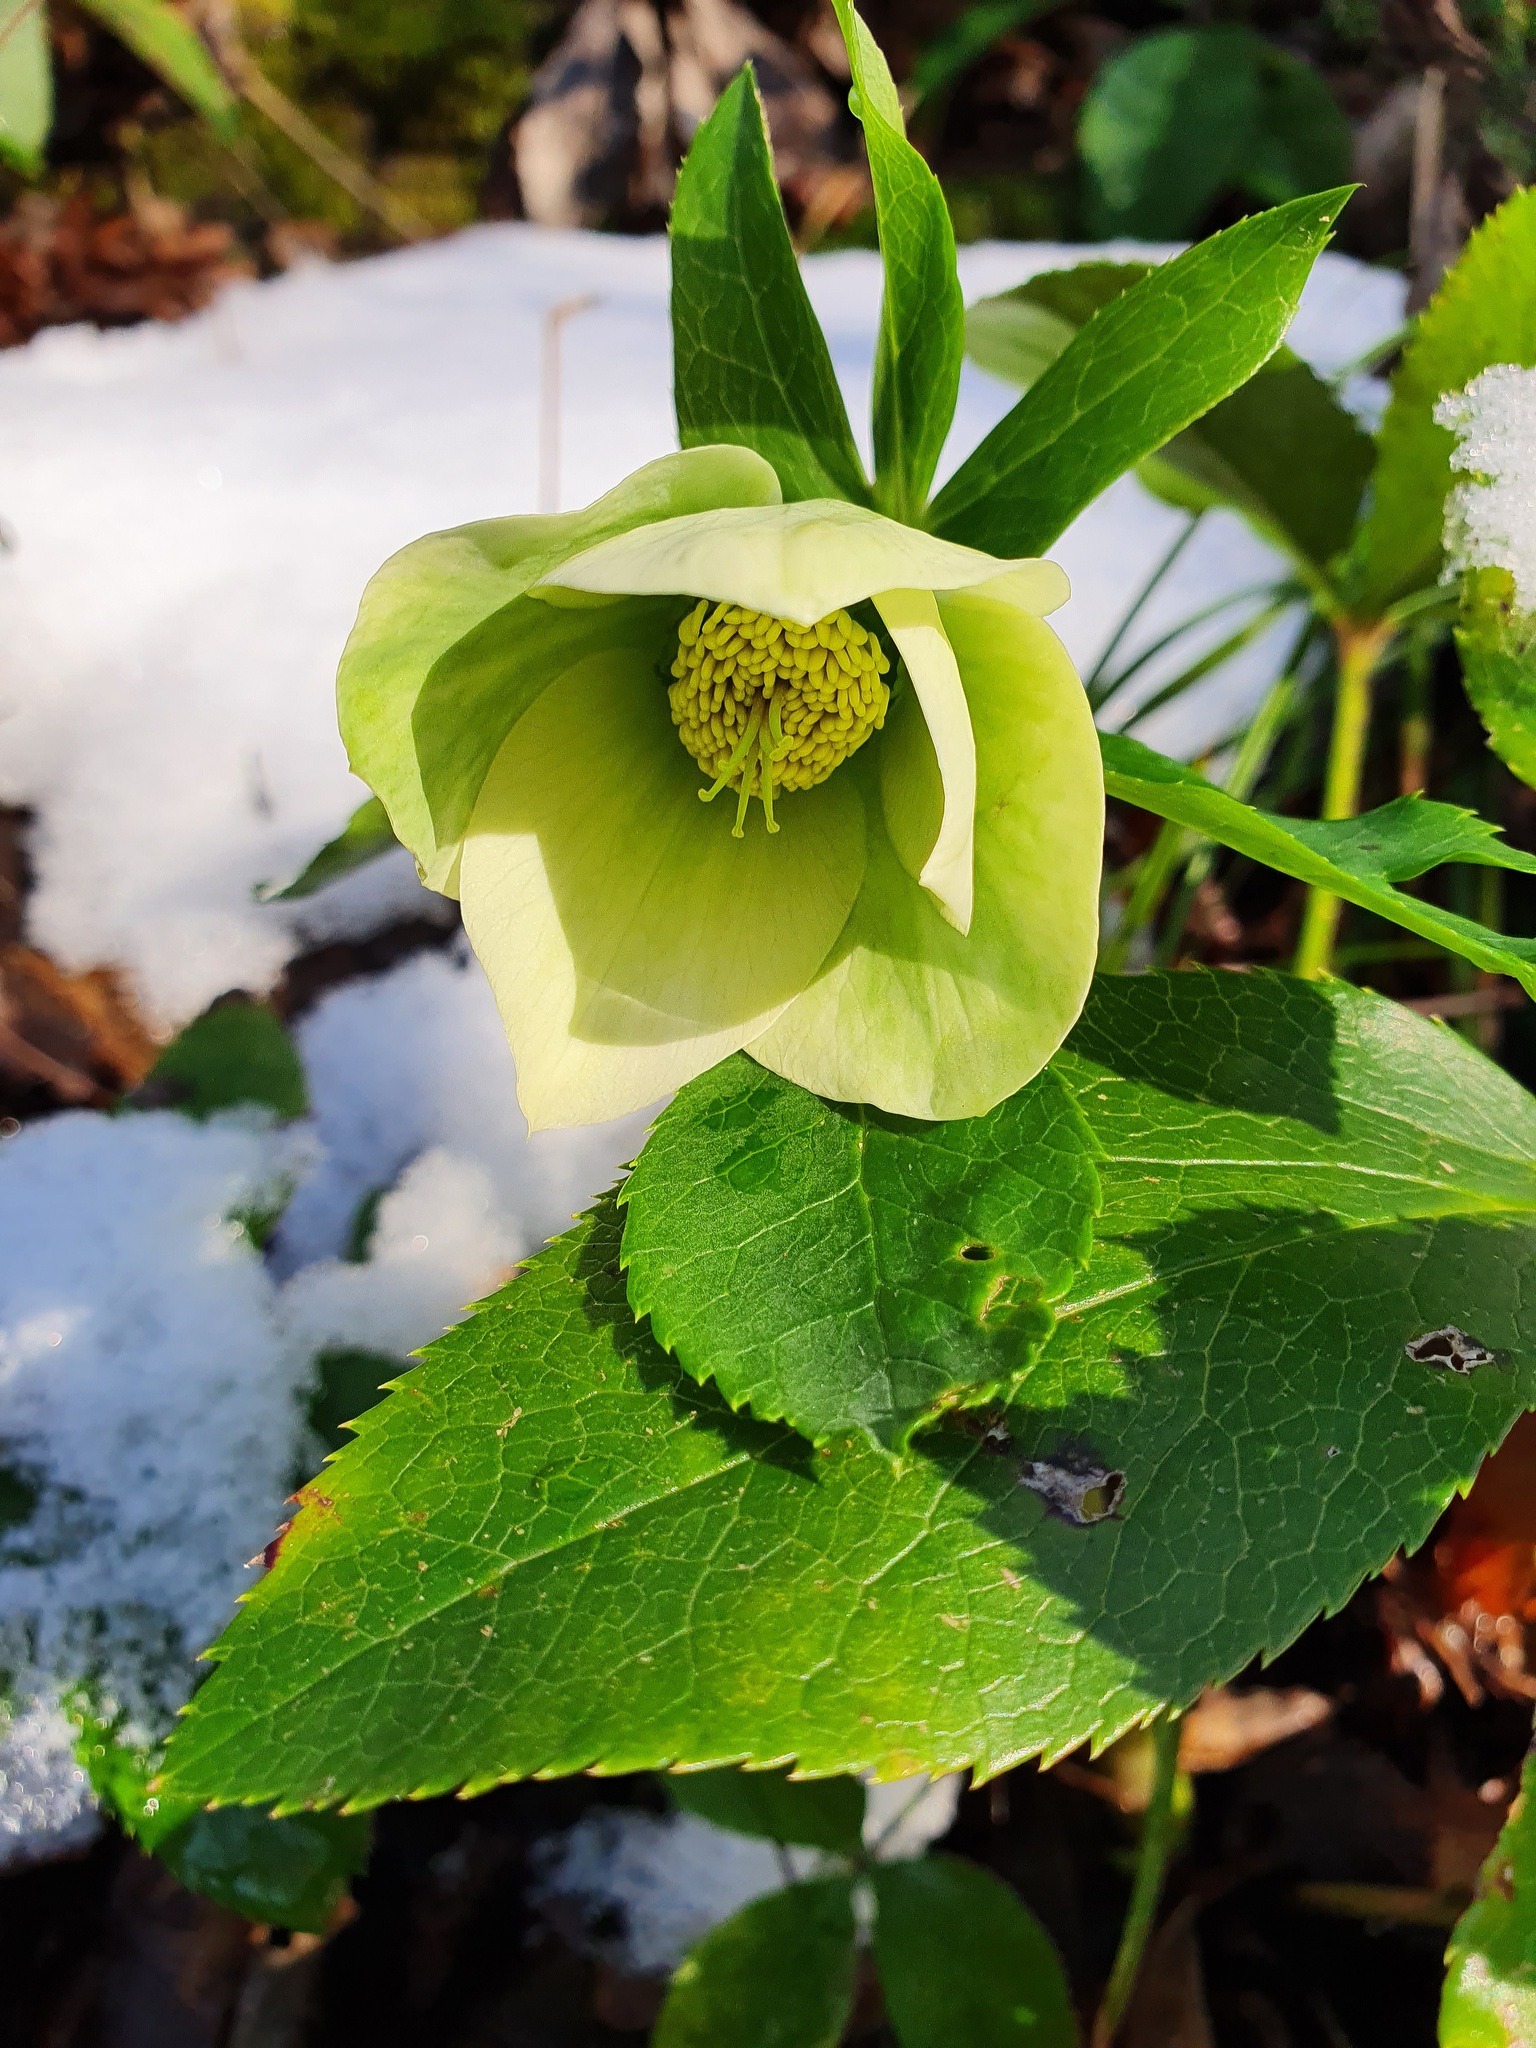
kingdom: Plantae
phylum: Tracheophyta
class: Magnoliopsida
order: Ranunculales
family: Ranunculaceae
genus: Helleborus
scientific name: Helleborus orientalis
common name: Lenten-rose
